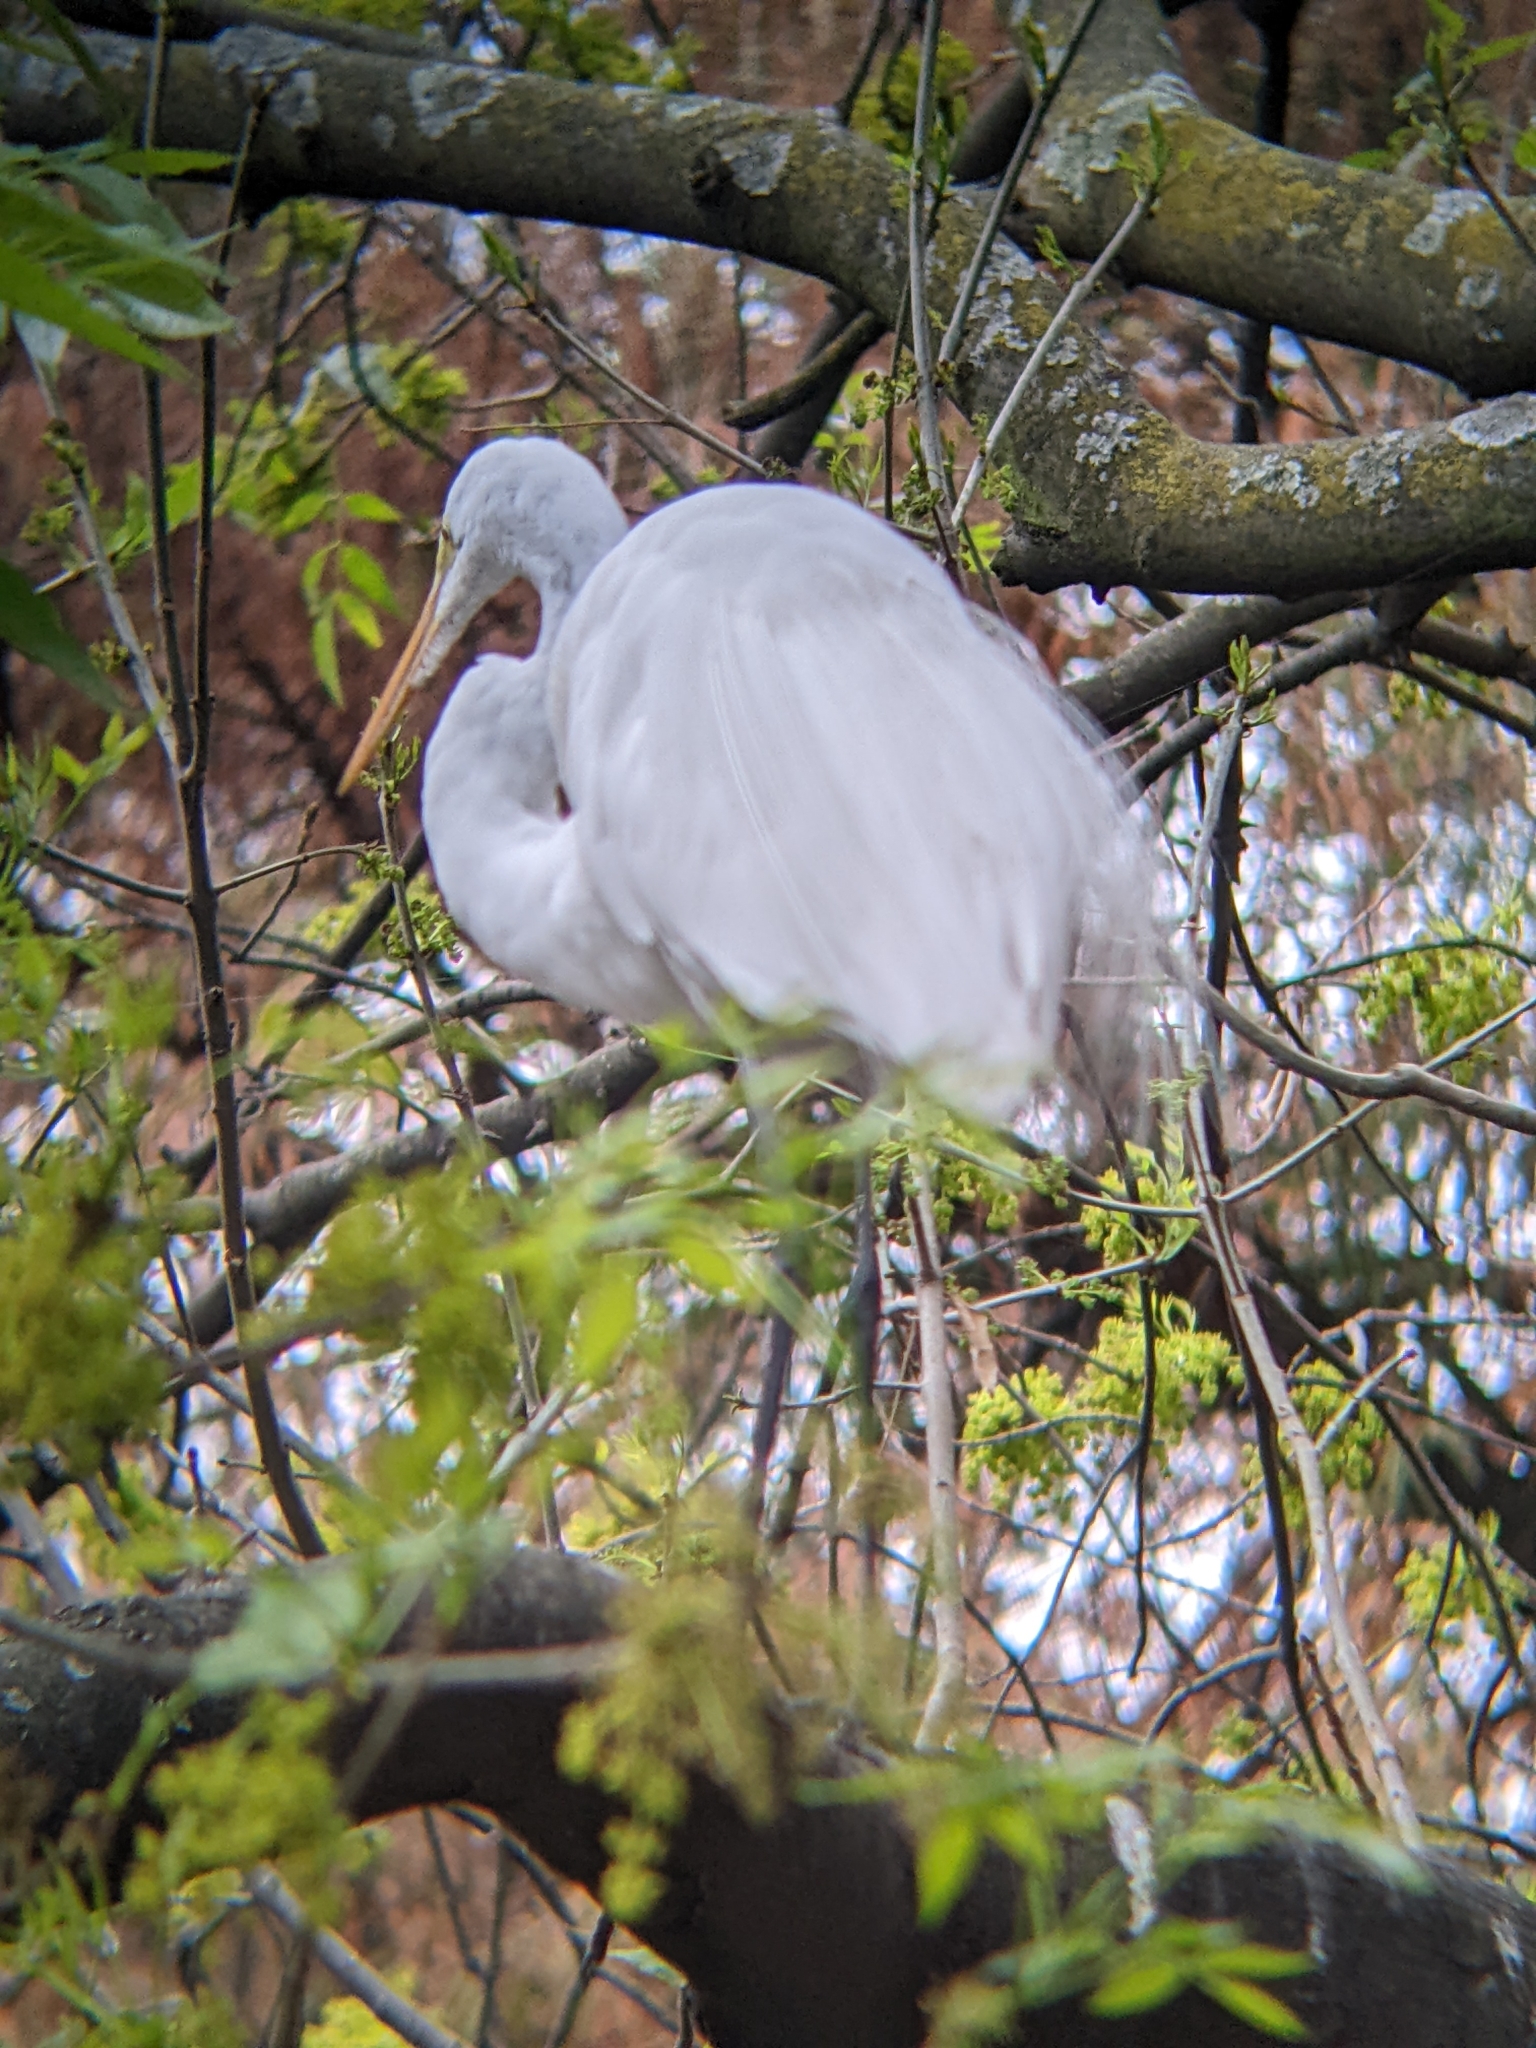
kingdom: Animalia
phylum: Chordata
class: Aves
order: Pelecaniformes
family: Ardeidae
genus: Ardea
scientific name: Ardea alba
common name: Great egret
